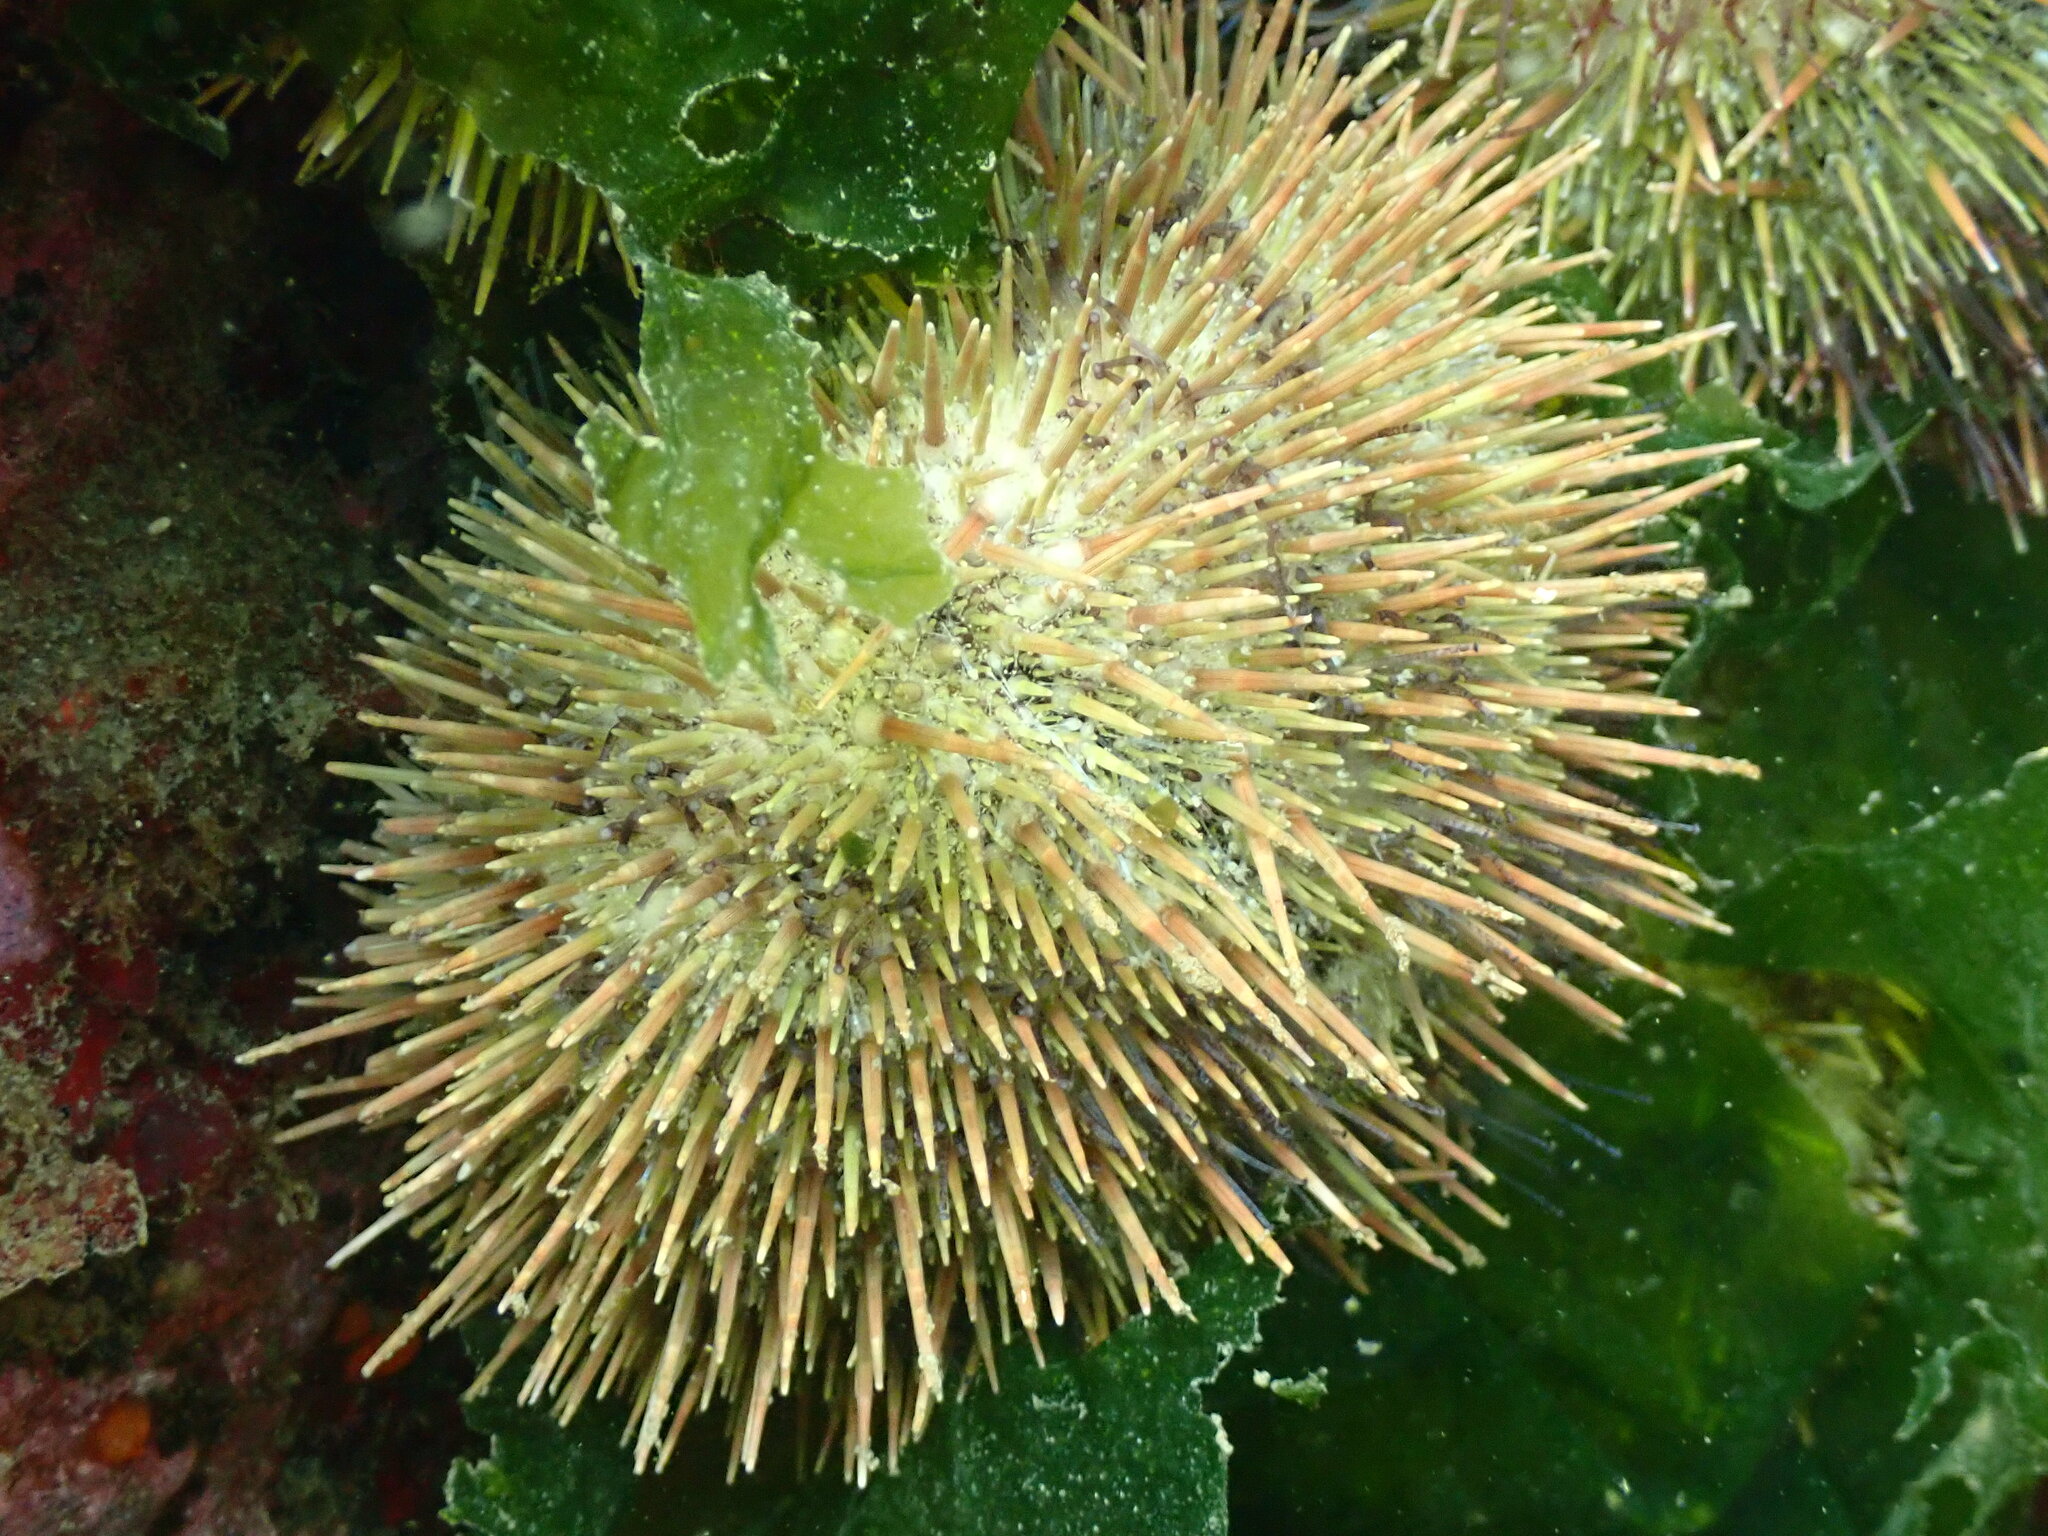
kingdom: Animalia
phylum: Echinodermata
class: Echinoidea
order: Camarodonta
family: Strongylocentrotidae
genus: Strongylocentrotus
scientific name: Strongylocentrotus droebachiensis
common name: Northern sea urchin
